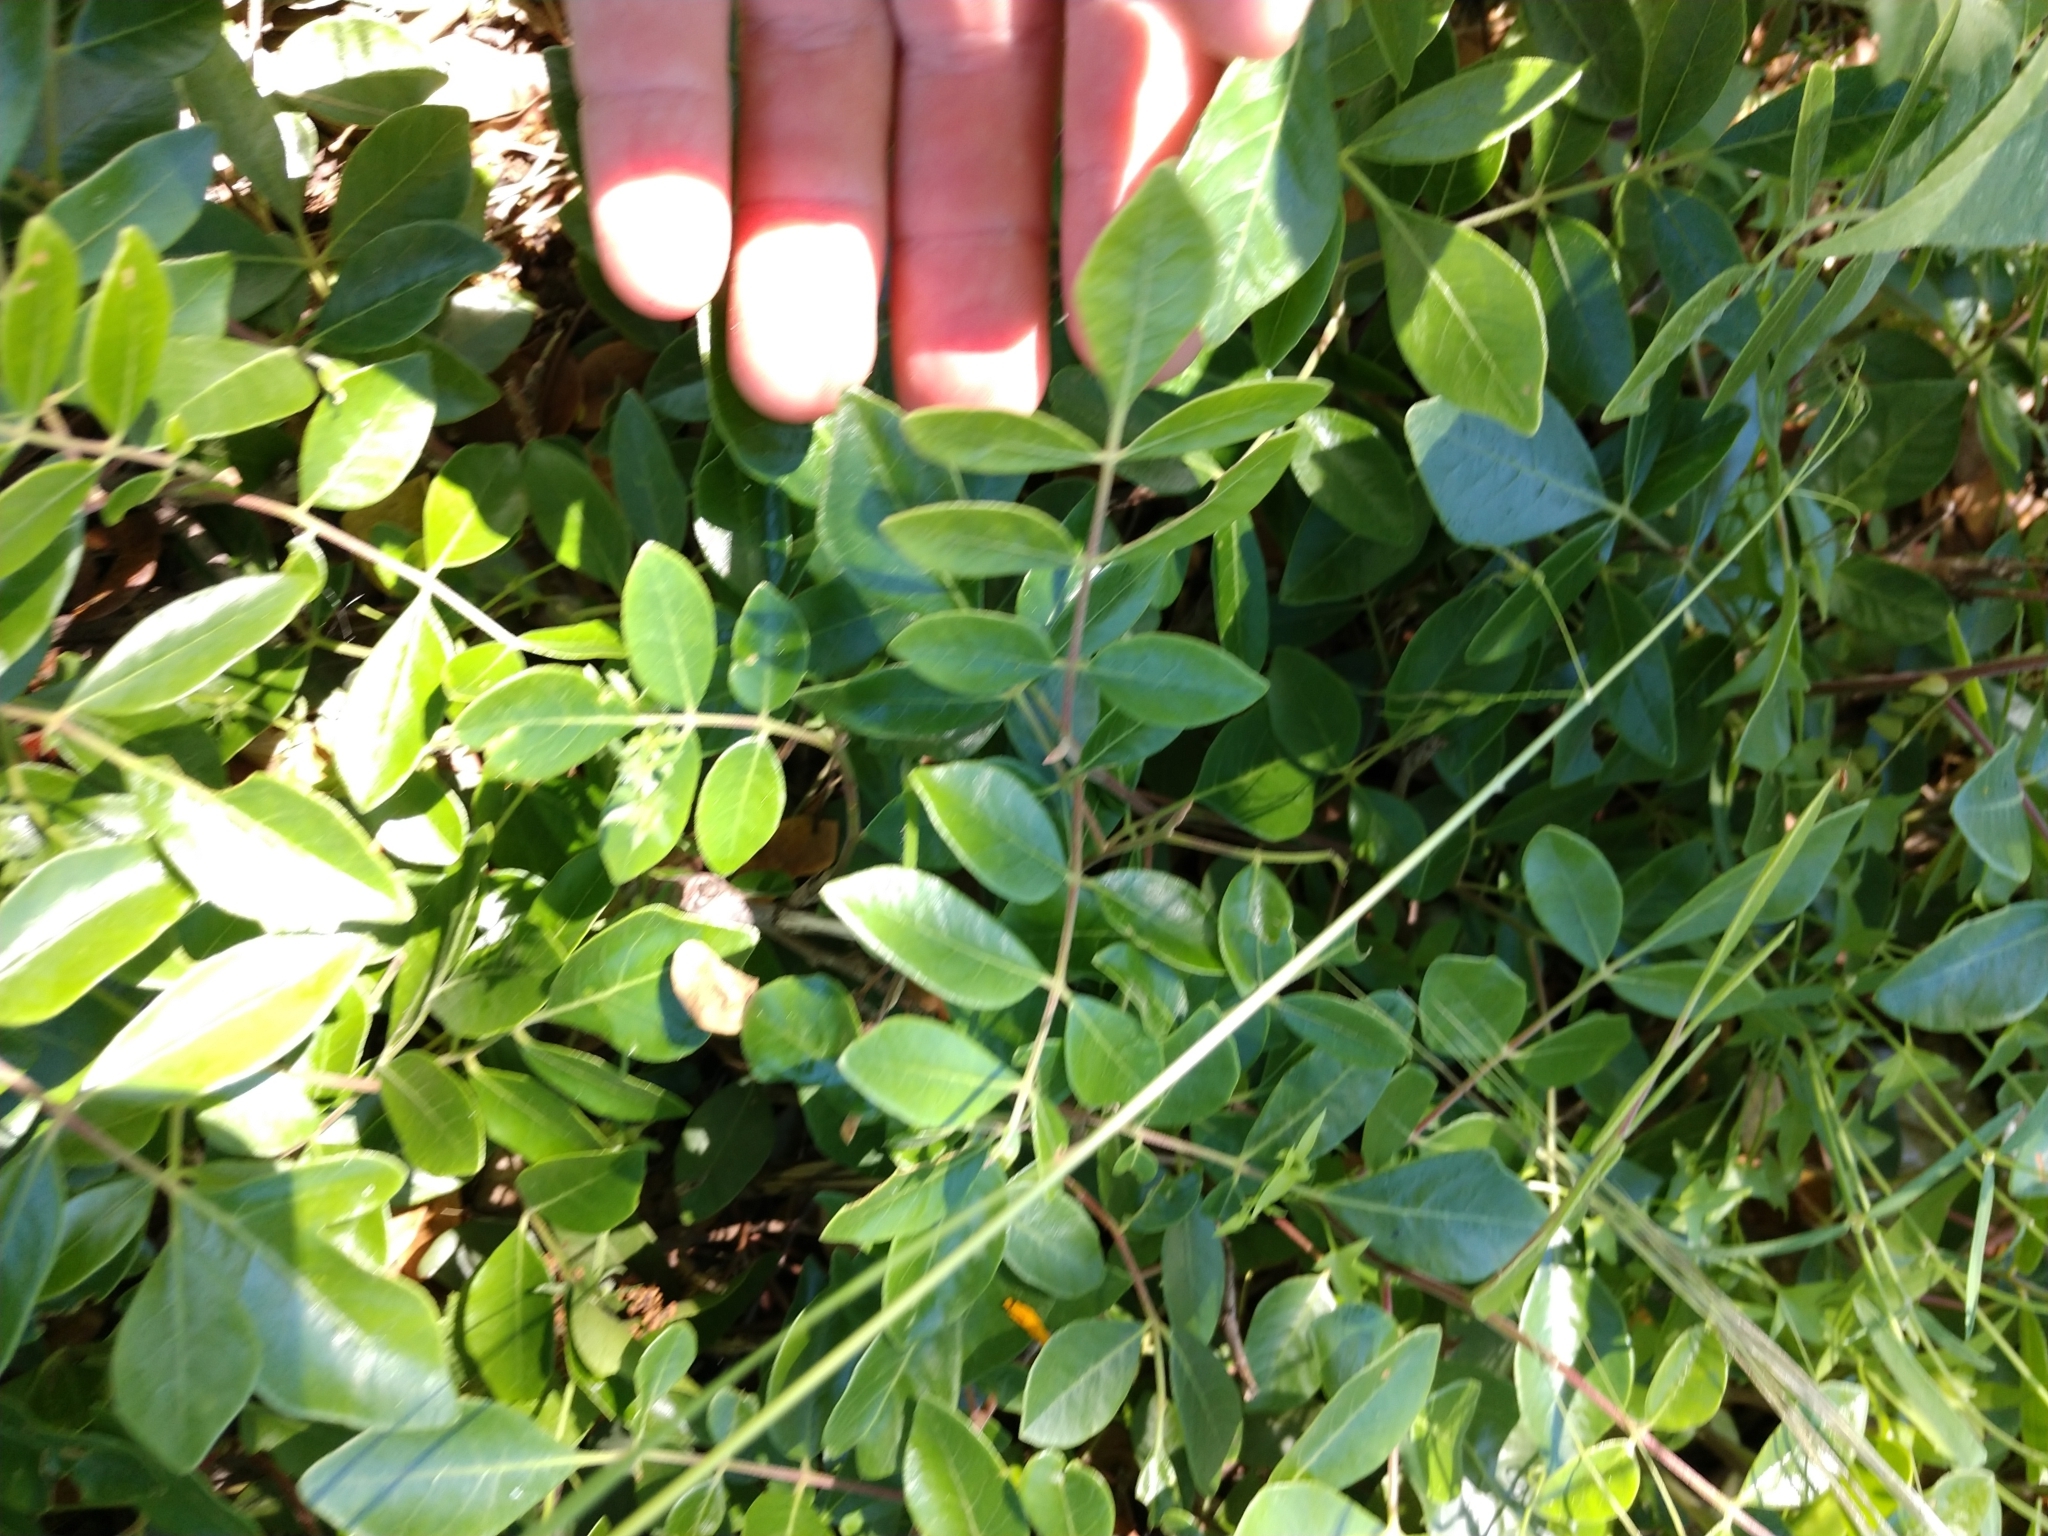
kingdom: Plantae
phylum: Tracheophyta
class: Magnoliopsida
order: Sapindales
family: Anacardiaceae
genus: Rhus
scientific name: Rhus virens
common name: Evergreen sumac
